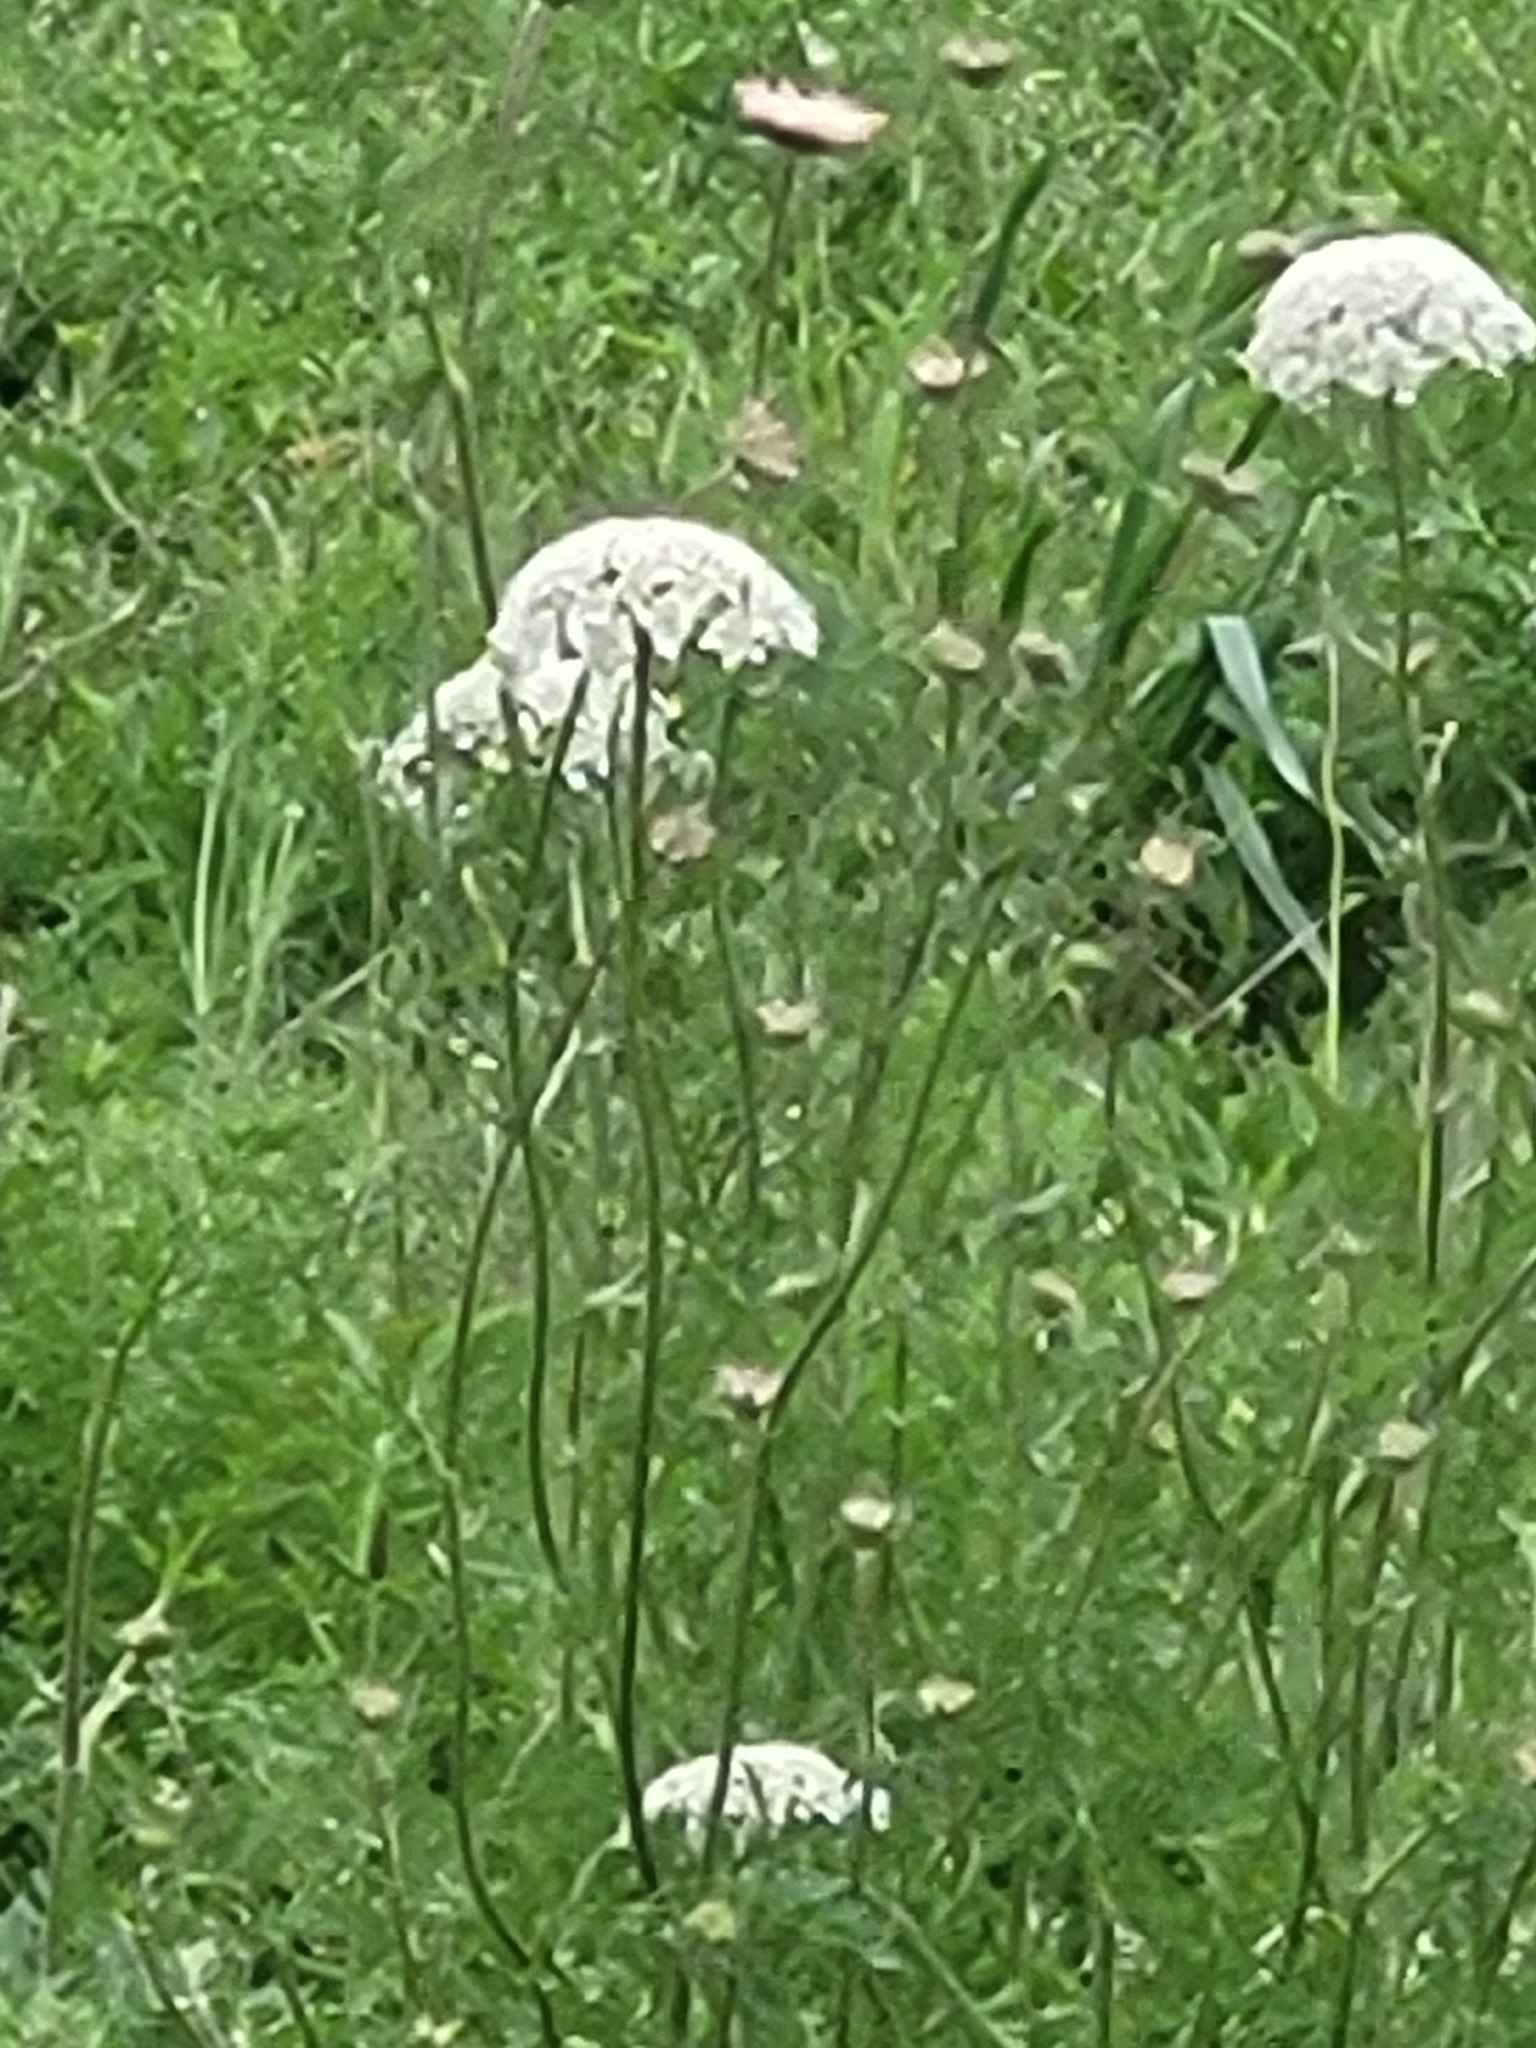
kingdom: Plantae
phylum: Tracheophyta
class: Magnoliopsida
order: Apiales
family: Apiaceae
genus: Daucus
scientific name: Daucus carota
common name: Wild carrot
